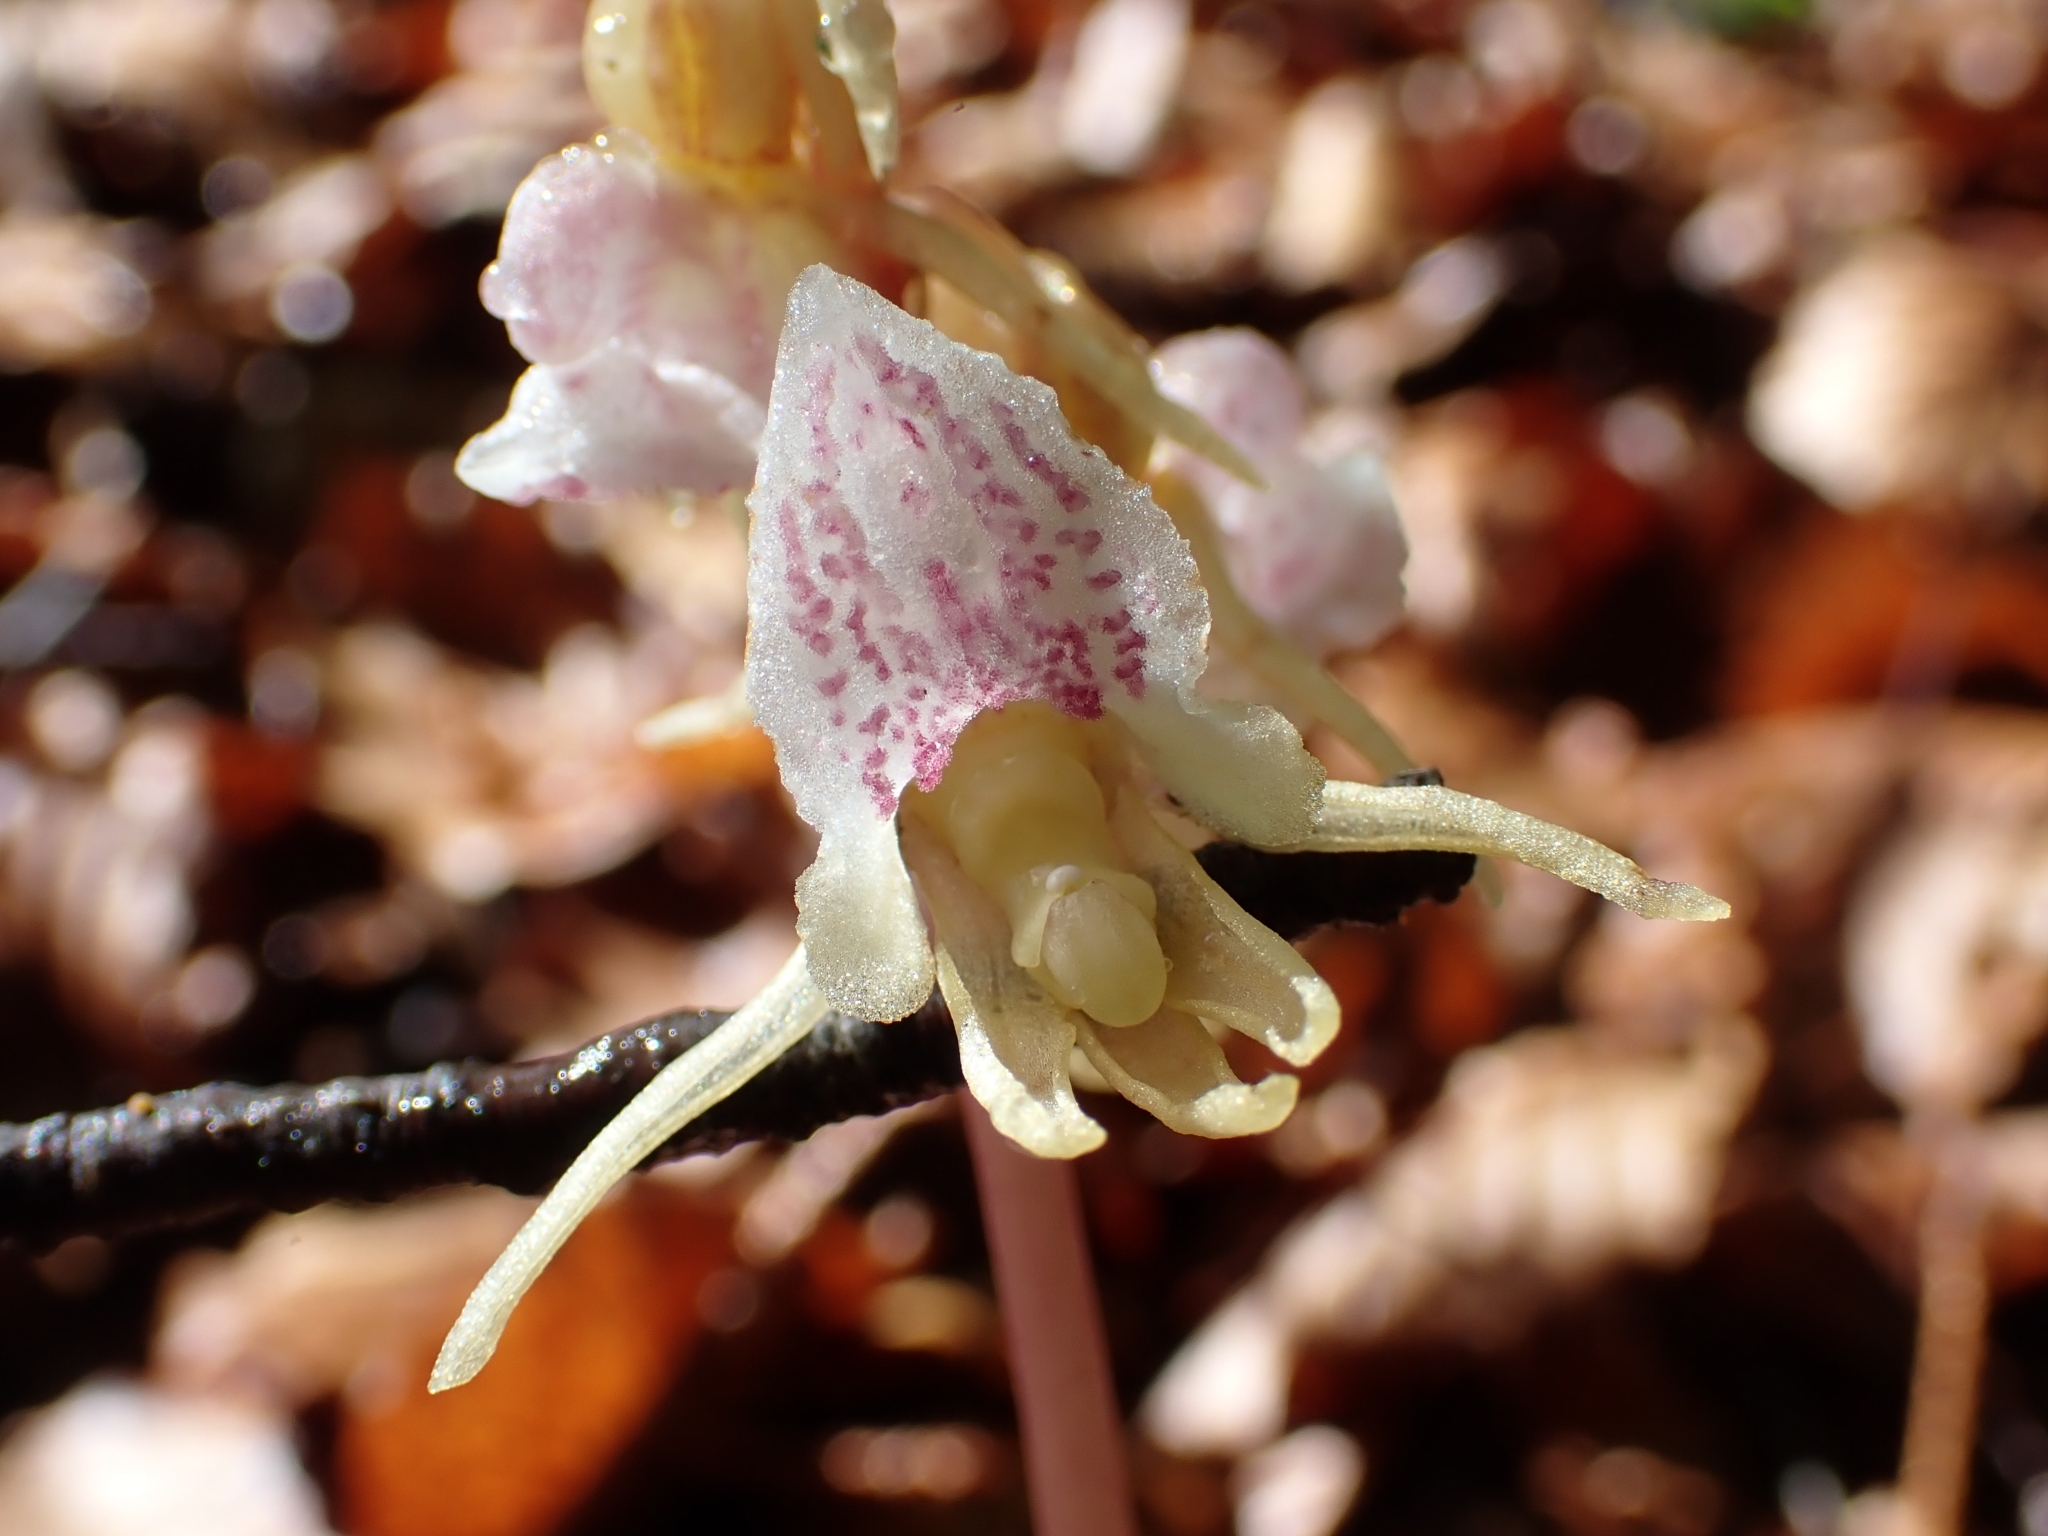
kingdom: Plantae
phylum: Tracheophyta
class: Liliopsida
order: Asparagales
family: Orchidaceae
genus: Epipogium
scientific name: Epipogium aphyllum
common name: Ghost orchid
